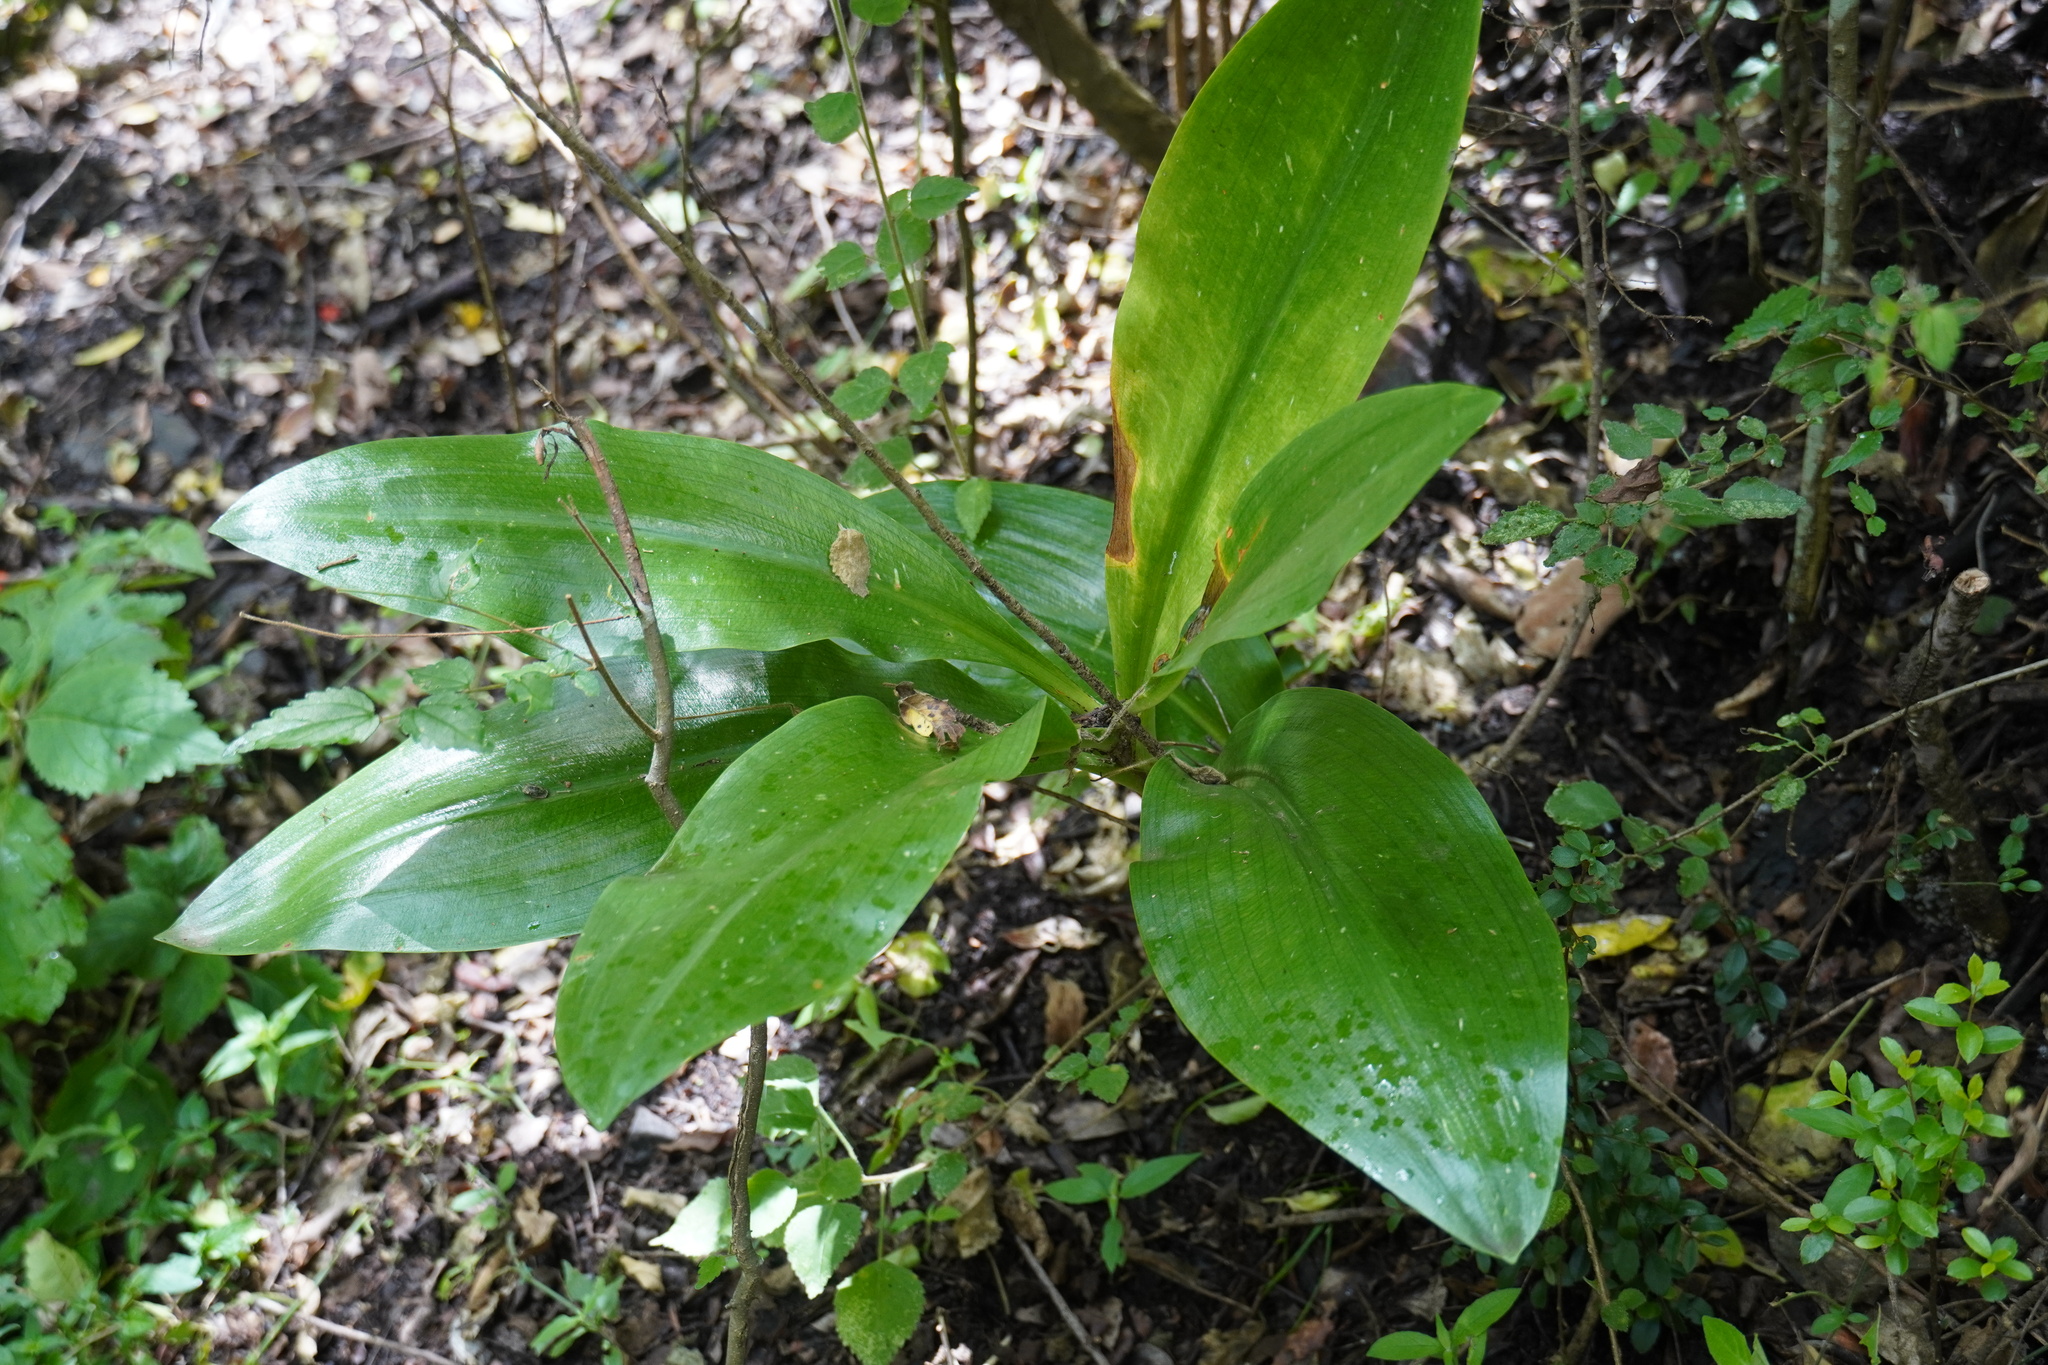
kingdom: Plantae
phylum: Tracheophyta
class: Liliopsida
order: Asparagales
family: Amaryllidaceae
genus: Scadoxus
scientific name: Scadoxus puniceus
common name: Royal-paintbrush
